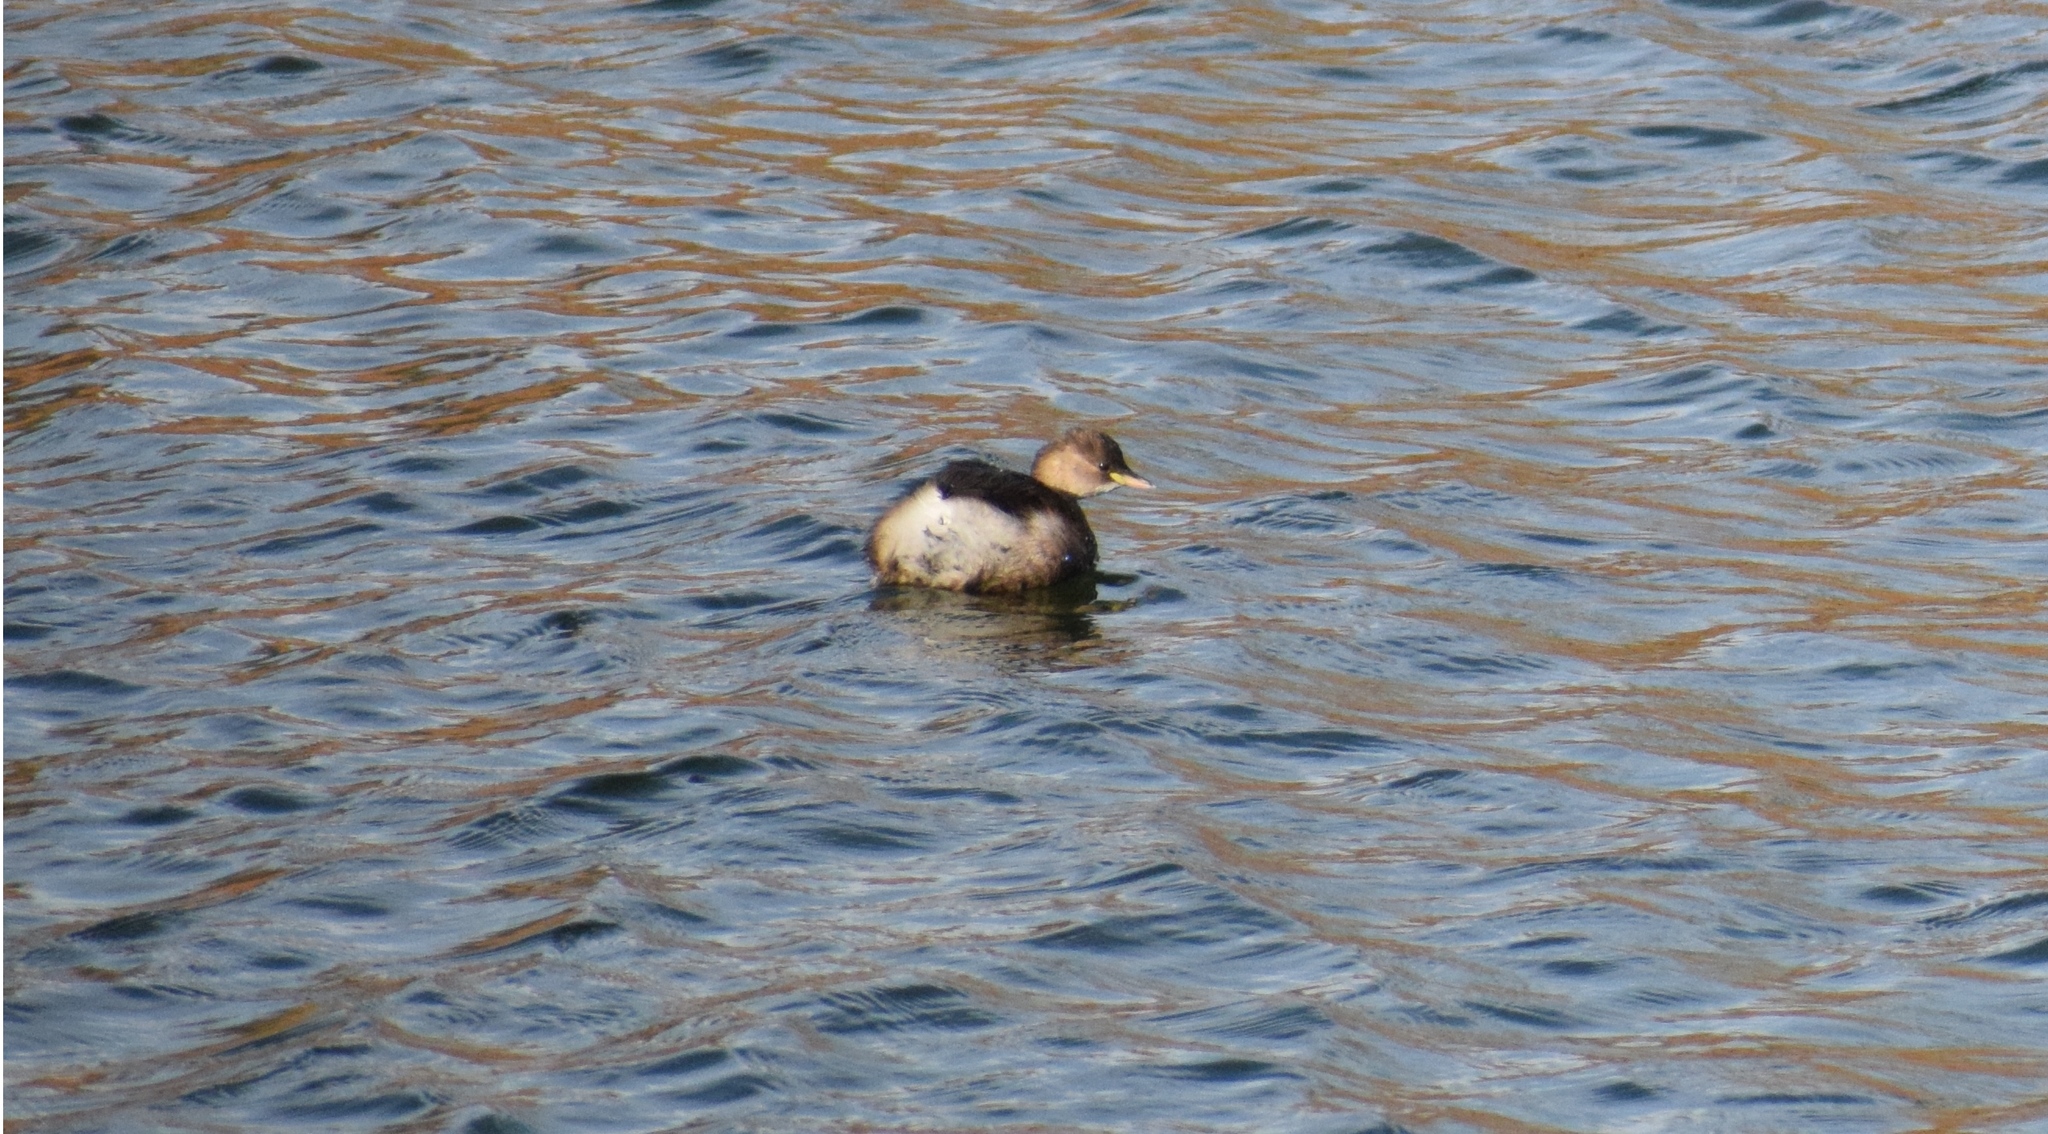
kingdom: Animalia
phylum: Chordata
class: Aves
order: Podicipediformes
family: Podicipedidae
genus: Tachybaptus
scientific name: Tachybaptus ruficollis
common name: Little grebe
